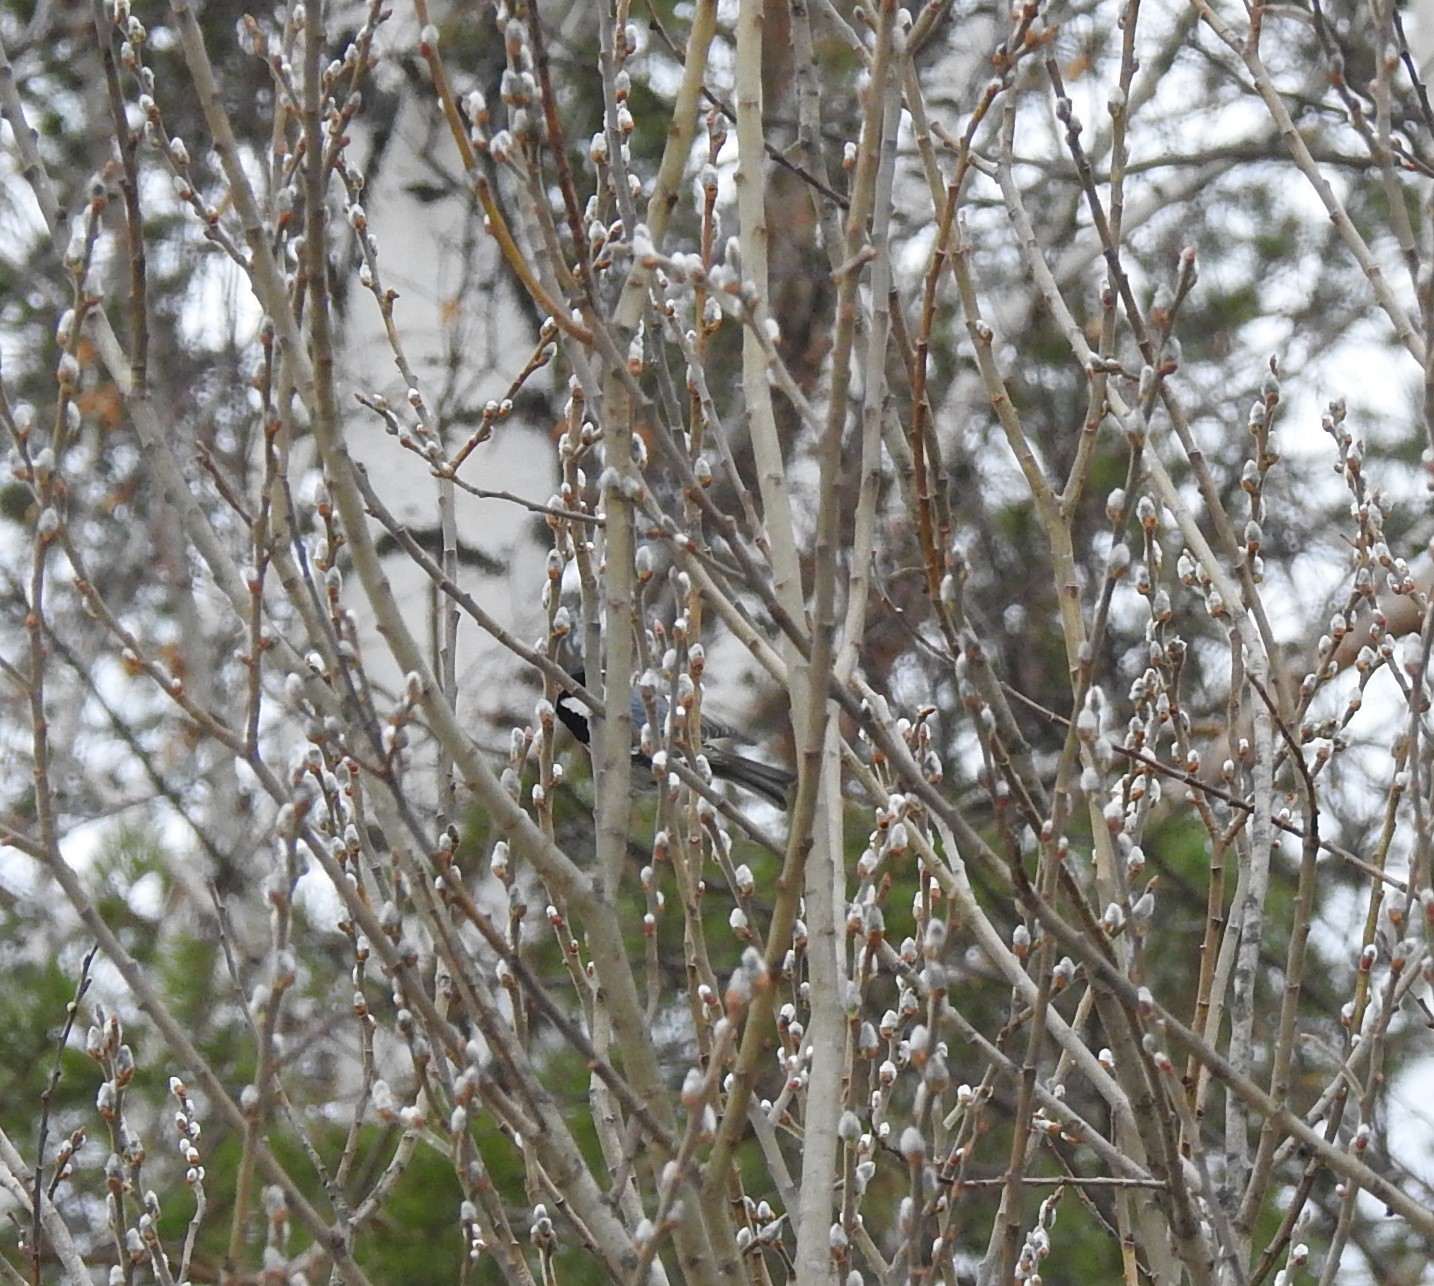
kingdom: Animalia
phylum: Chordata
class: Aves
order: Passeriformes
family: Paridae
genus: Periparus
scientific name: Periparus ater
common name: Coal tit
